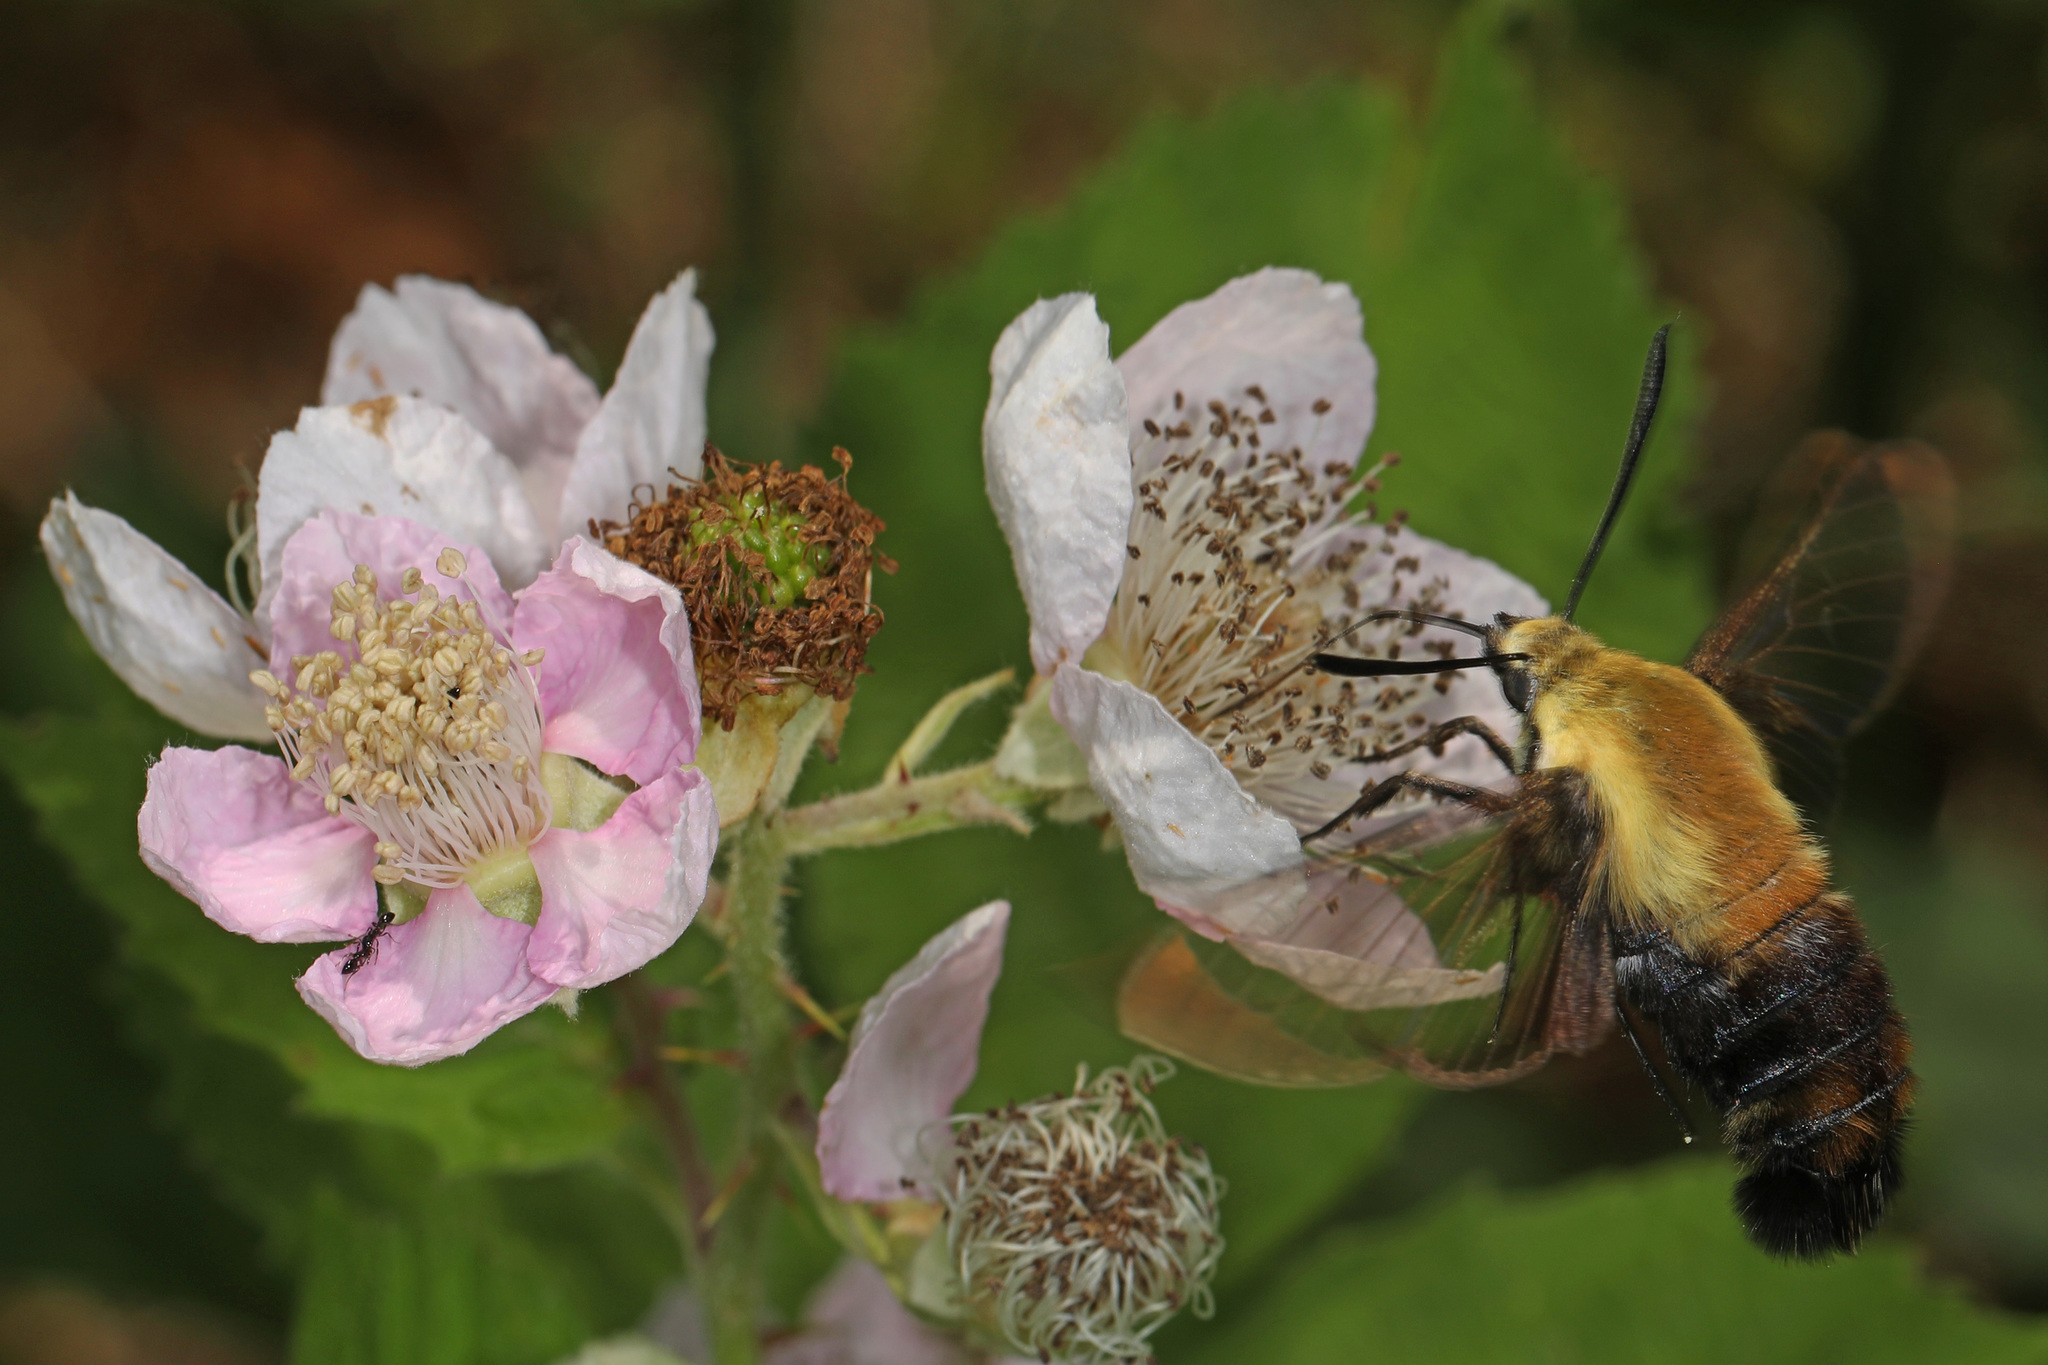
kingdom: Animalia
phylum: Arthropoda
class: Insecta
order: Lepidoptera
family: Sphingidae
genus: Hemaris
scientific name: Hemaris diffinis
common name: Bumblebee moth
